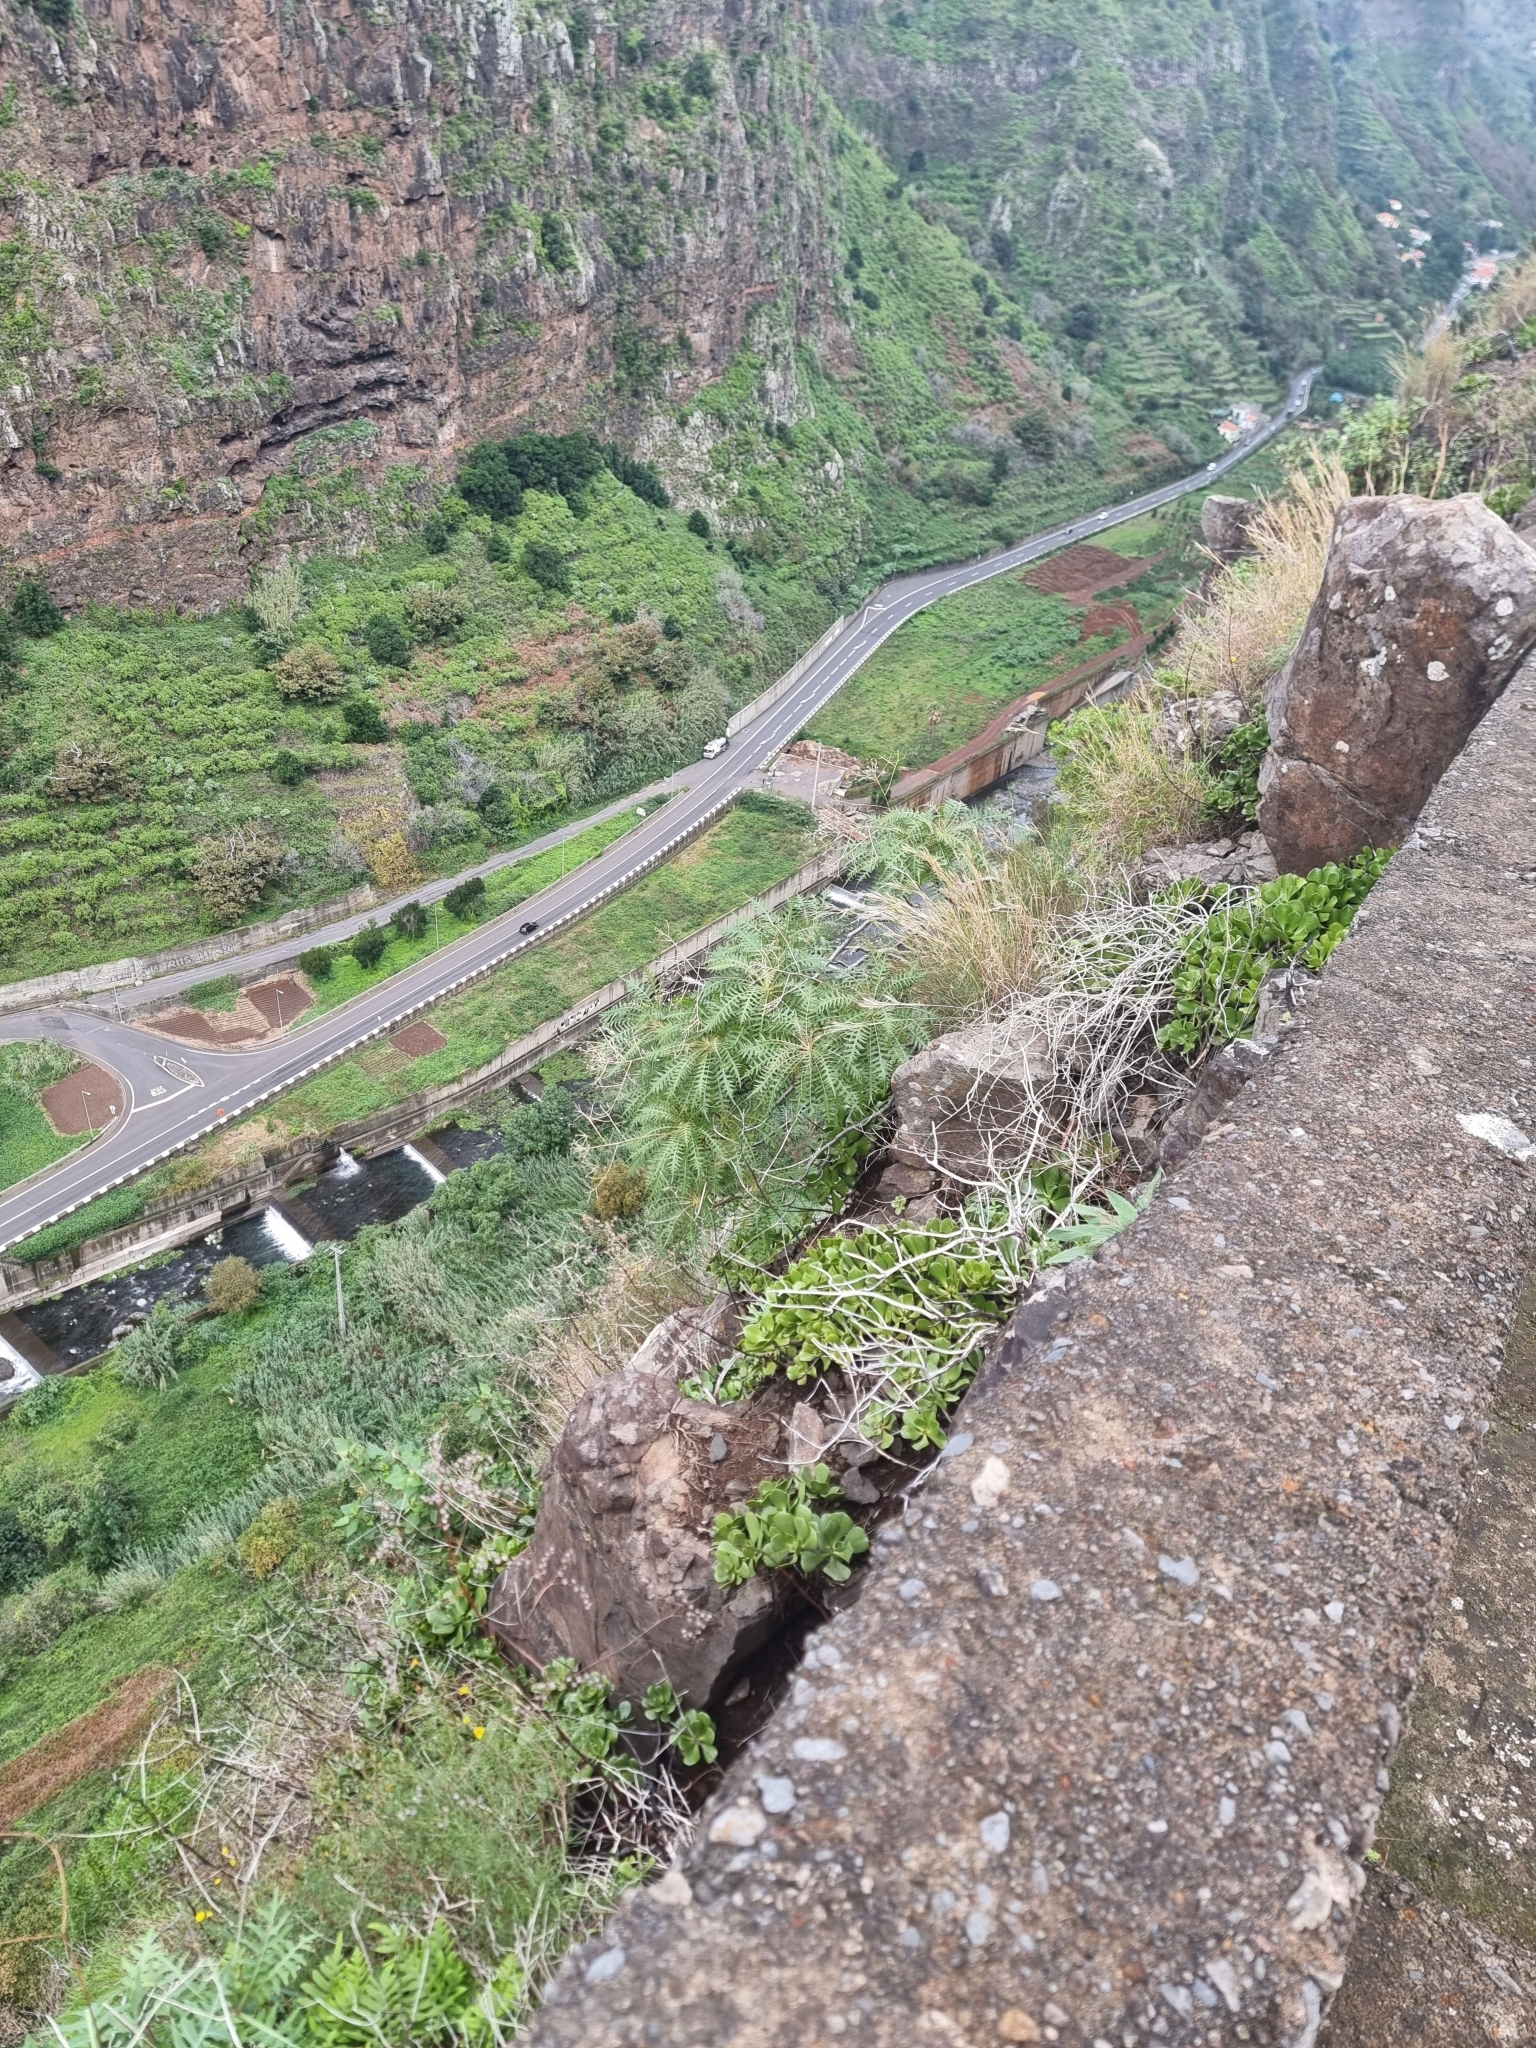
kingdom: Plantae
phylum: Tracheophyta
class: Magnoliopsida
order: Asterales
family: Asteraceae
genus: Sonchus
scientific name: Sonchus pinnatus
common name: Wing-leaved sow-thistle
